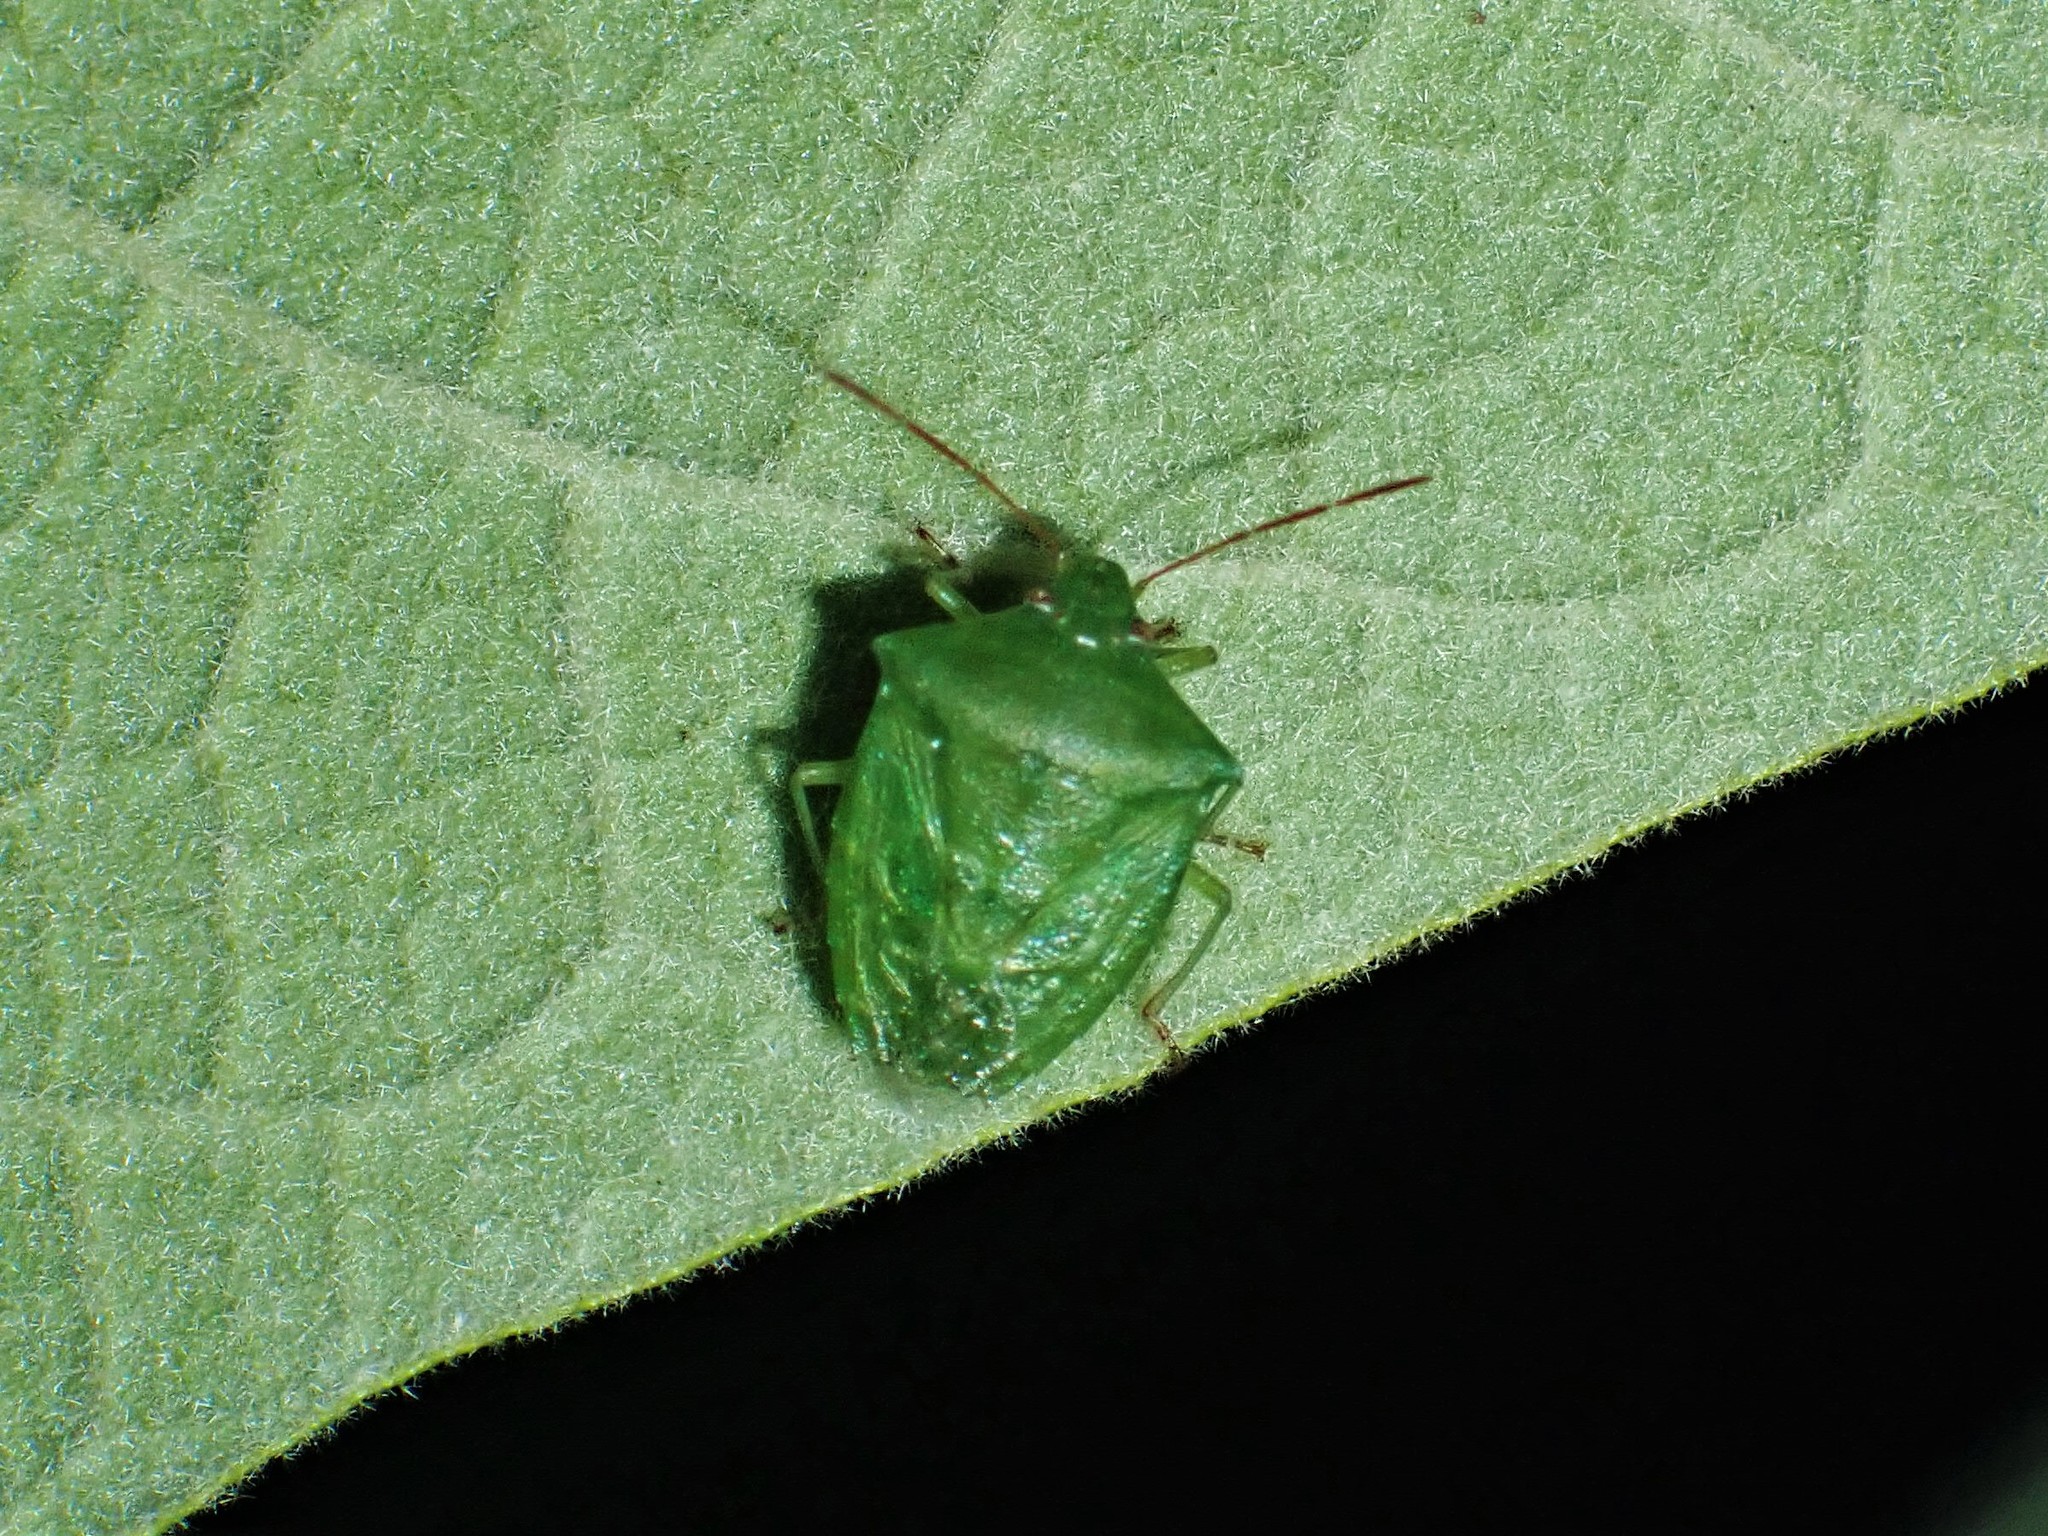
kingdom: Animalia
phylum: Arthropoda
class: Insecta
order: Hemiptera
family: Pentatomidae
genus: Cuspicona
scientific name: Cuspicona simplex
